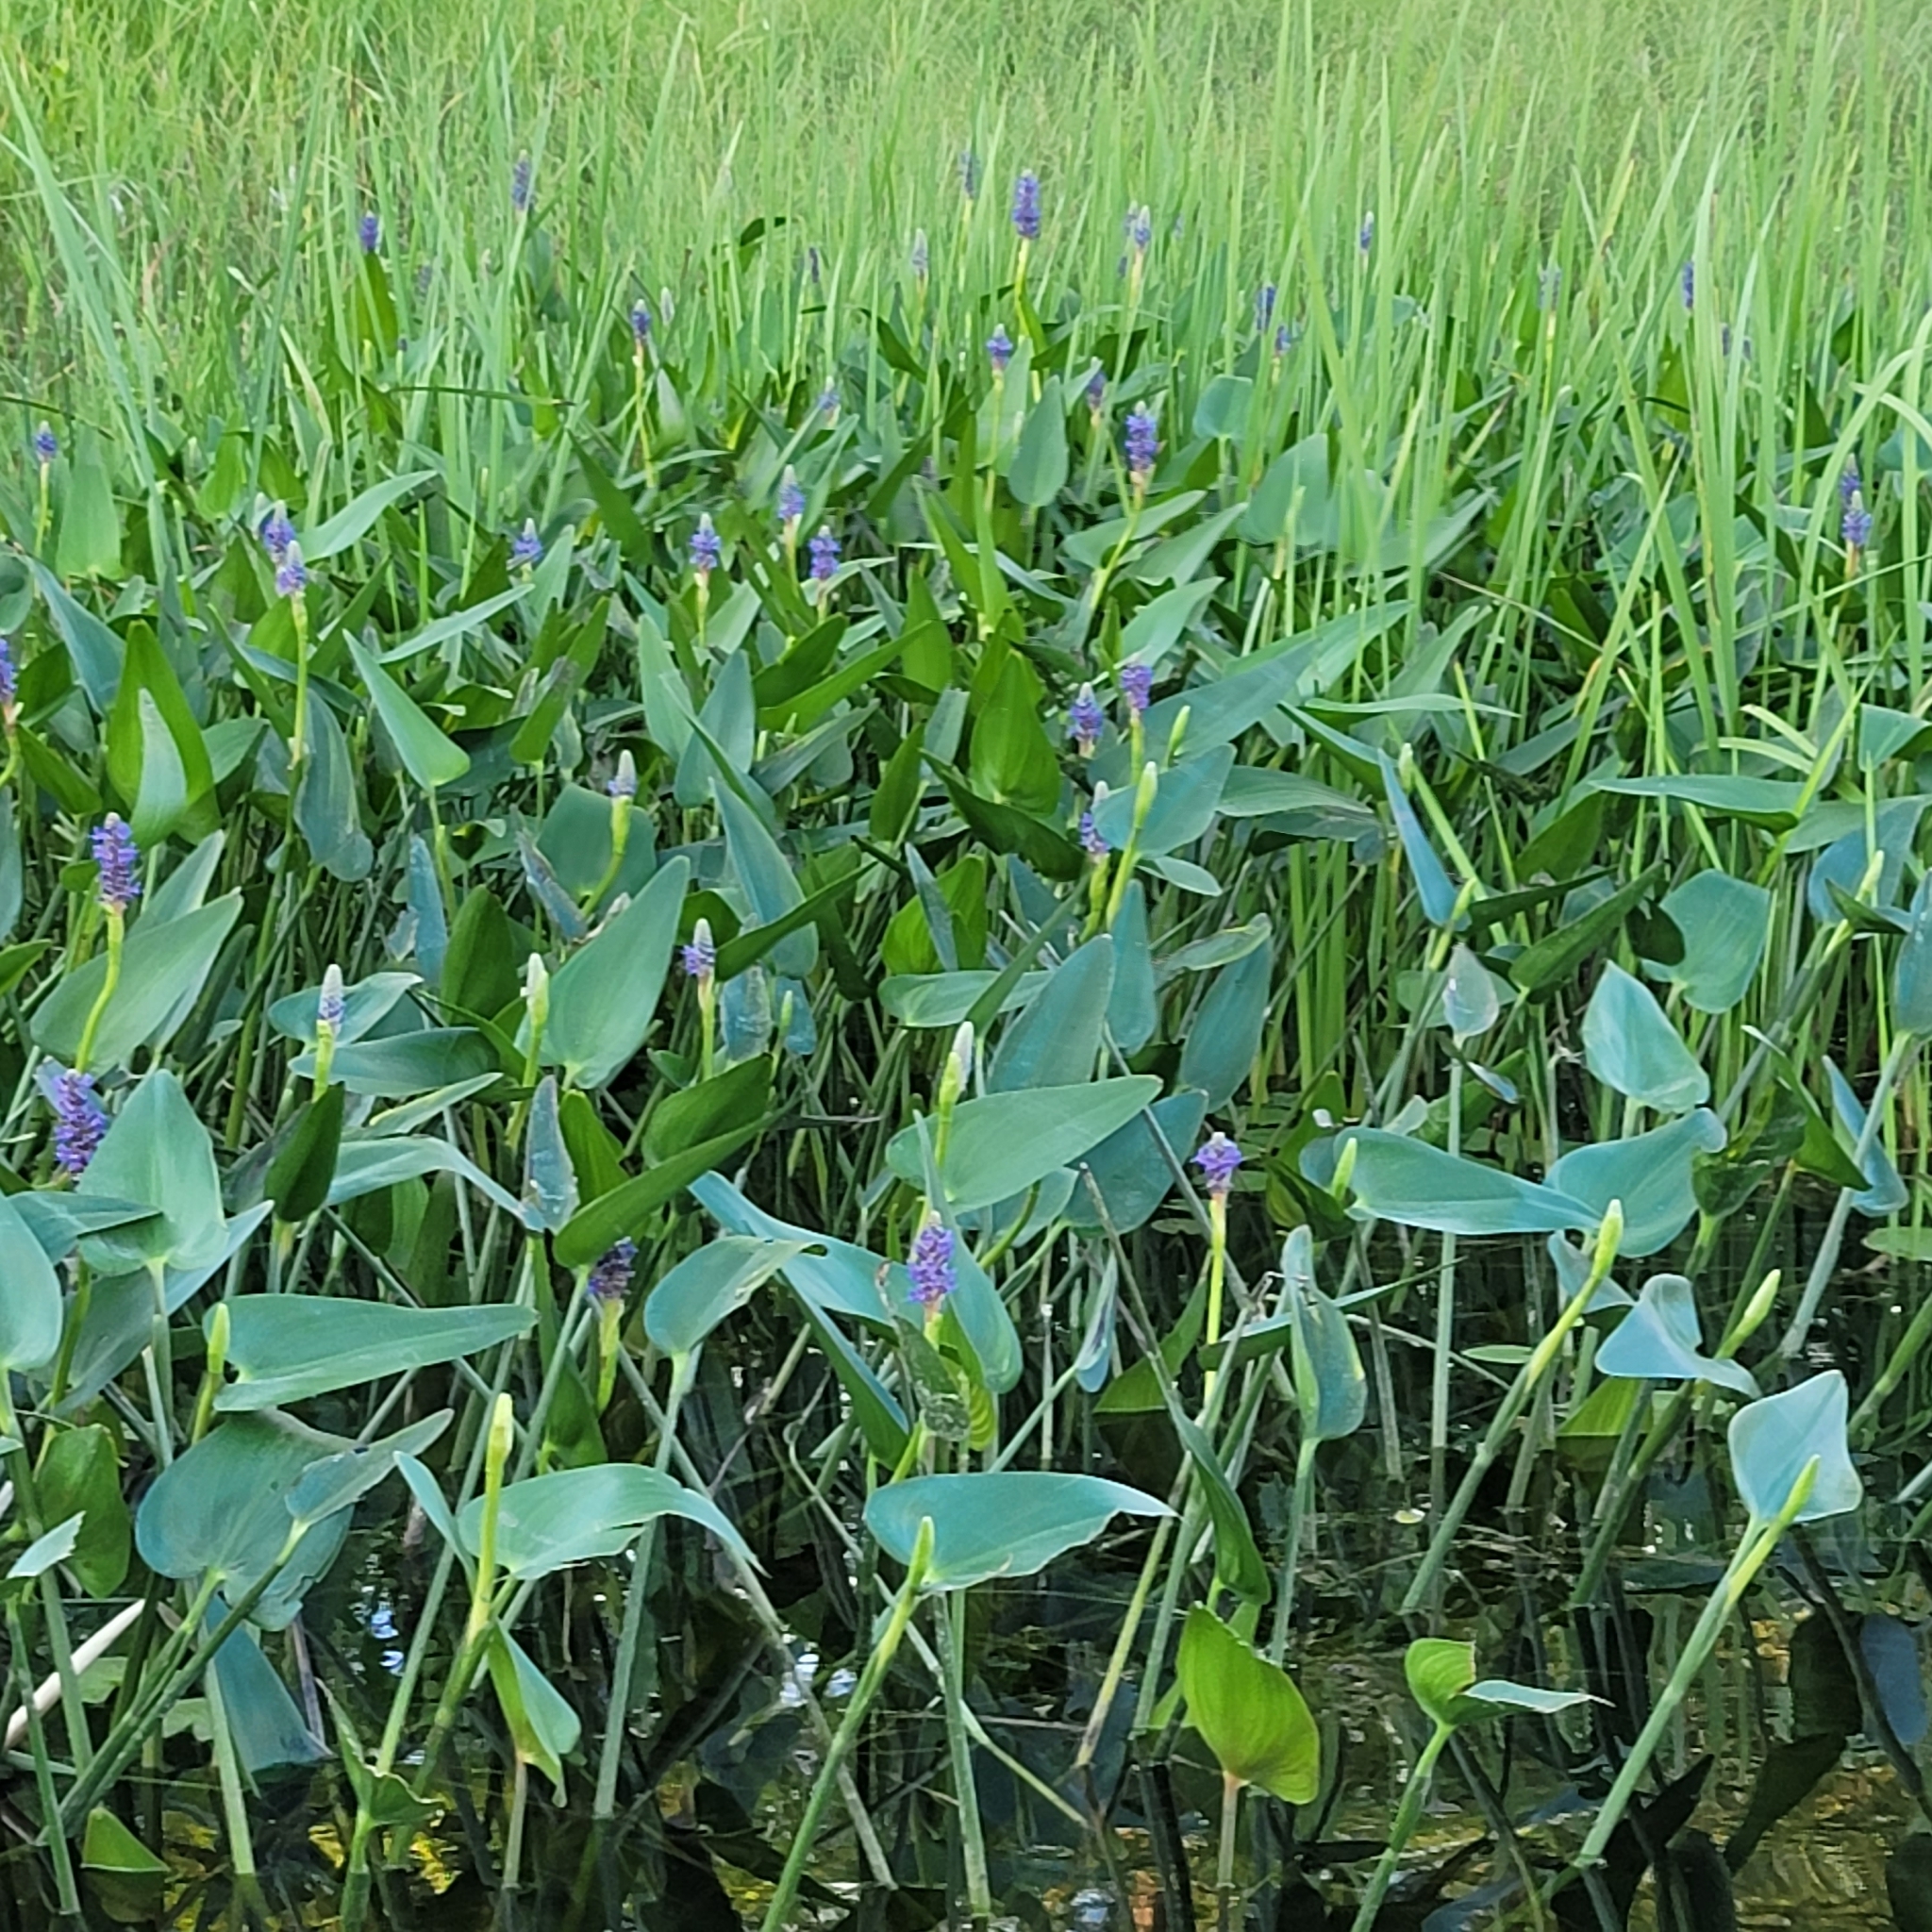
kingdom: Plantae
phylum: Tracheophyta
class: Liliopsida
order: Commelinales
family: Pontederiaceae
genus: Pontederia
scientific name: Pontederia cordata
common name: Pickerelweed
